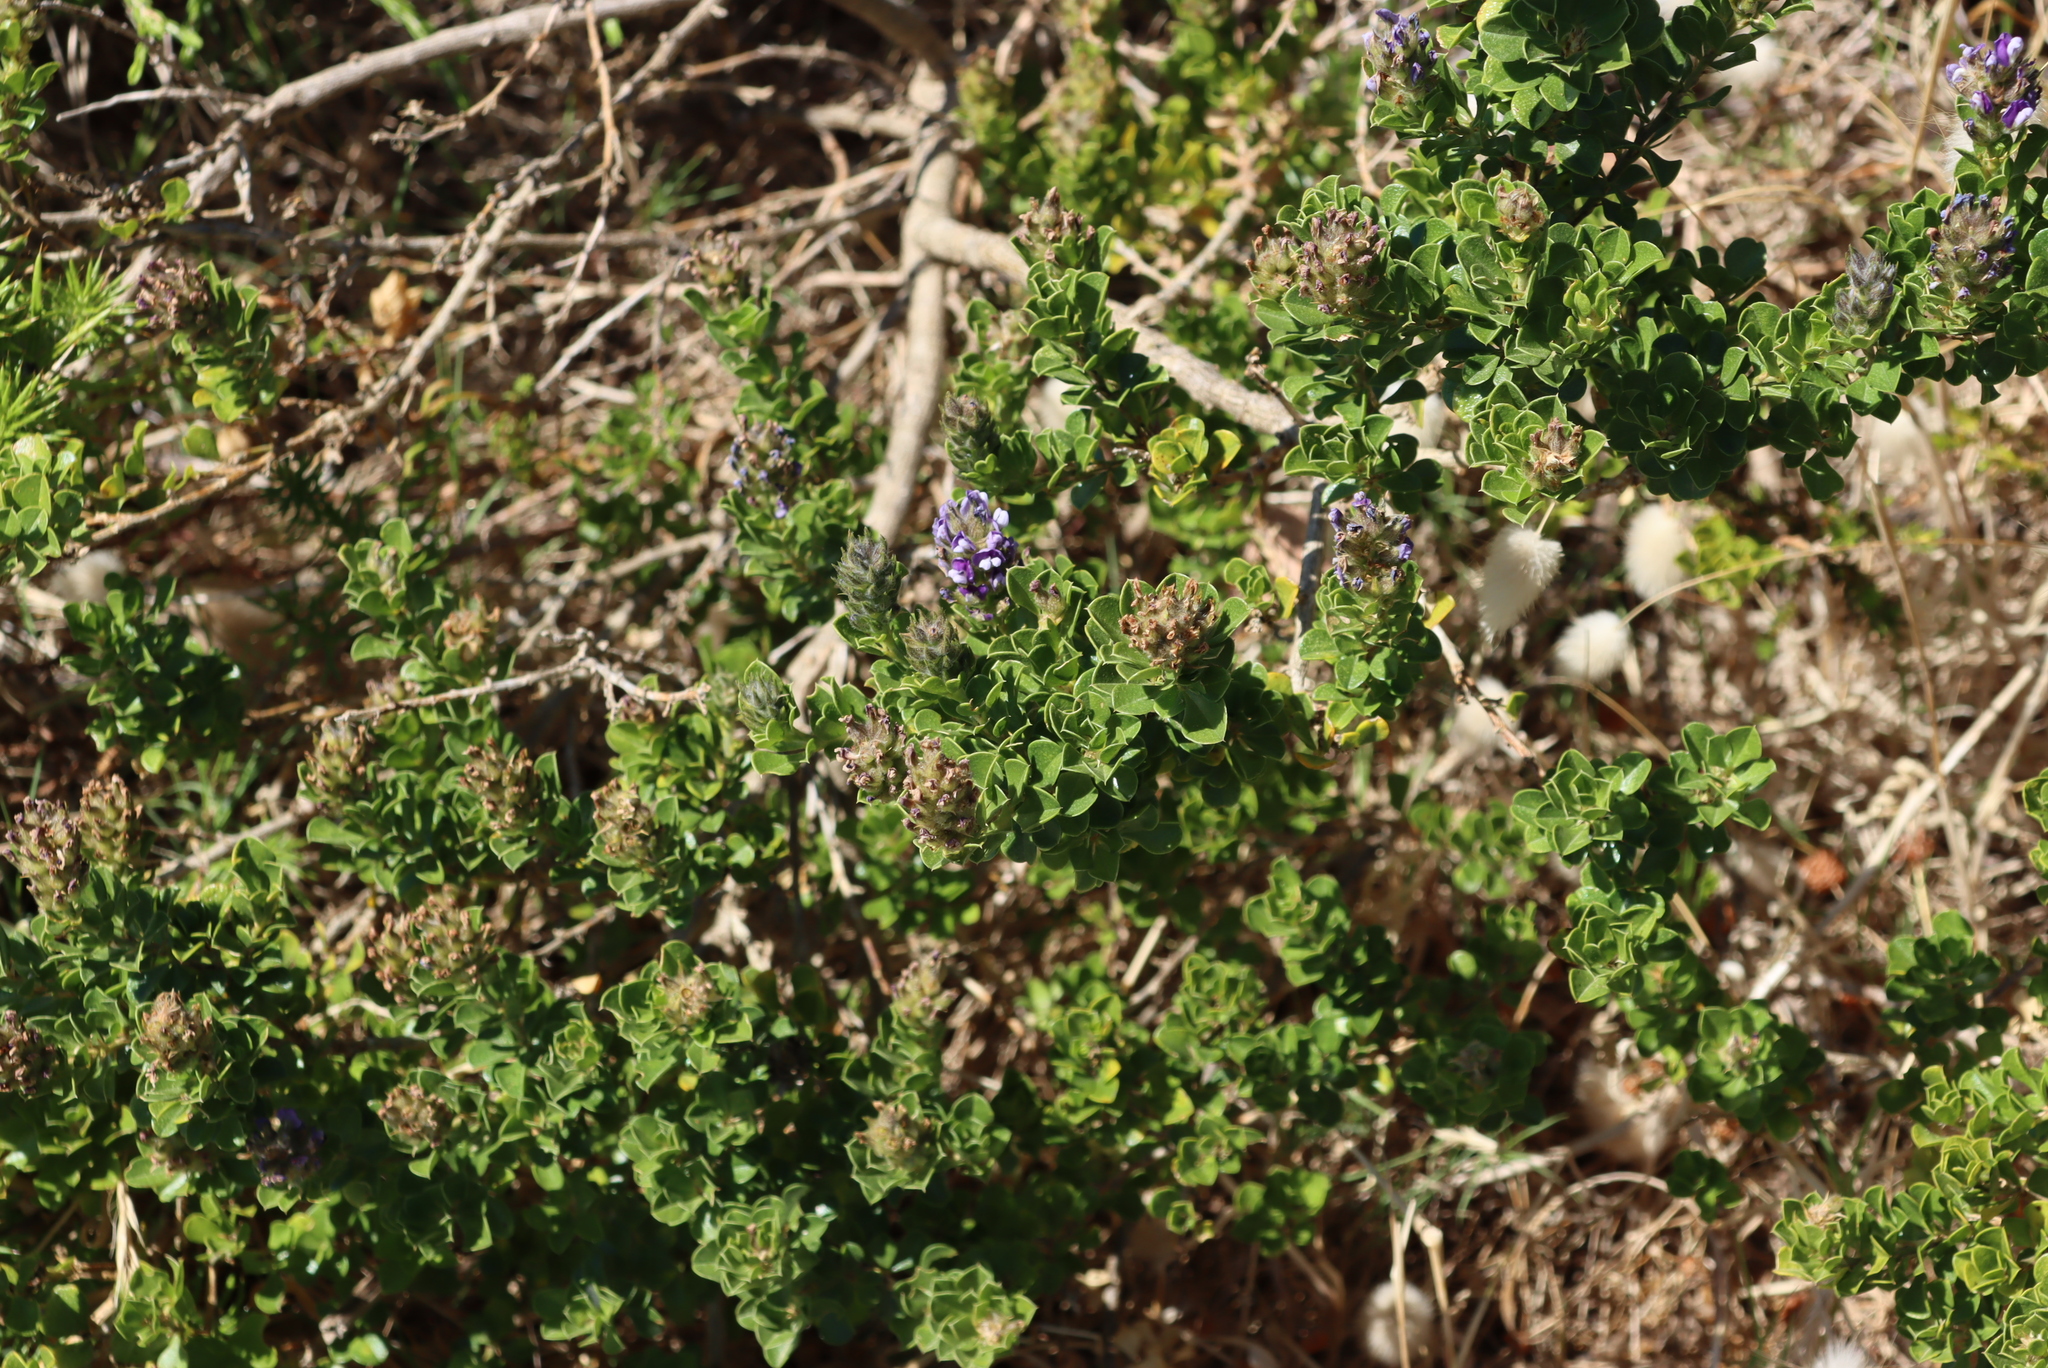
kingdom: Plantae
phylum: Tracheophyta
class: Magnoliopsida
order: Fabales
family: Fabaceae
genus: Psoralea
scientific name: Psoralea bracteolata
